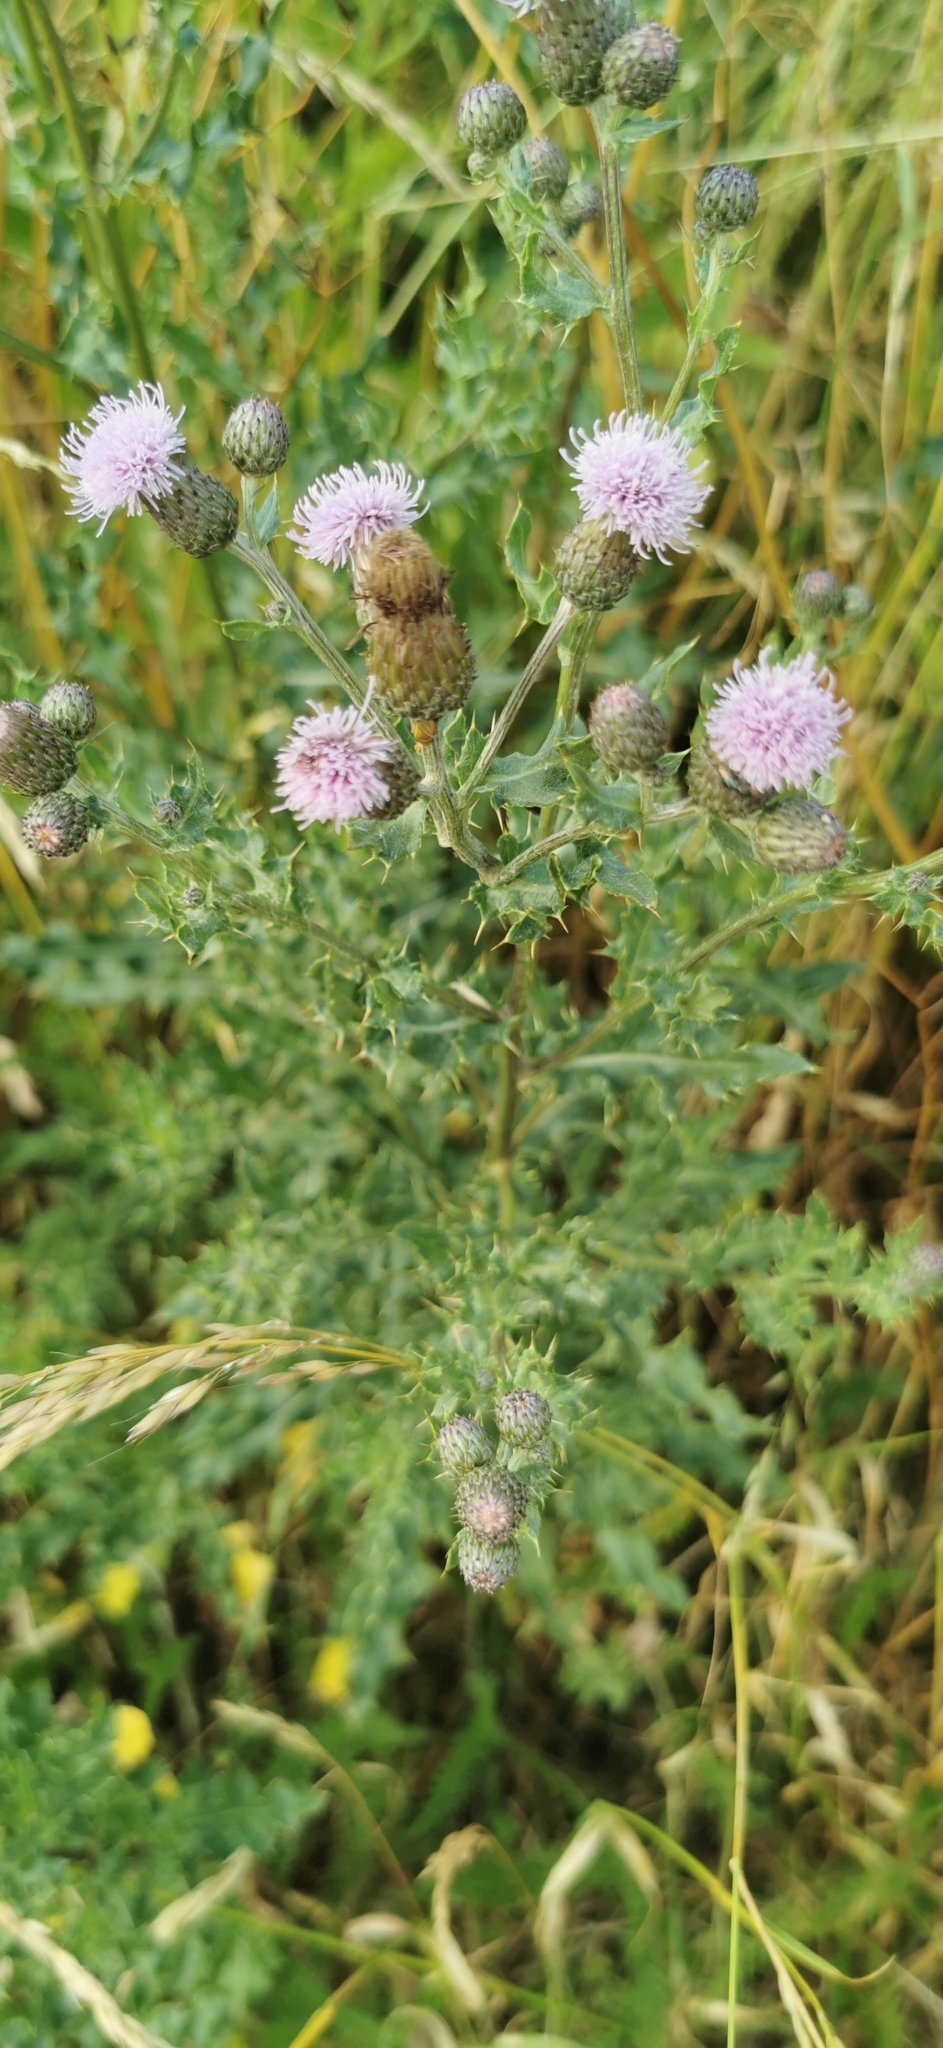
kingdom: Plantae
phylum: Tracheophyta
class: Magnoliopsida
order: Asterales
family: Asteraceae
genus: Cirsium
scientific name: Cirsium arvense
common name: Creeping thistle
